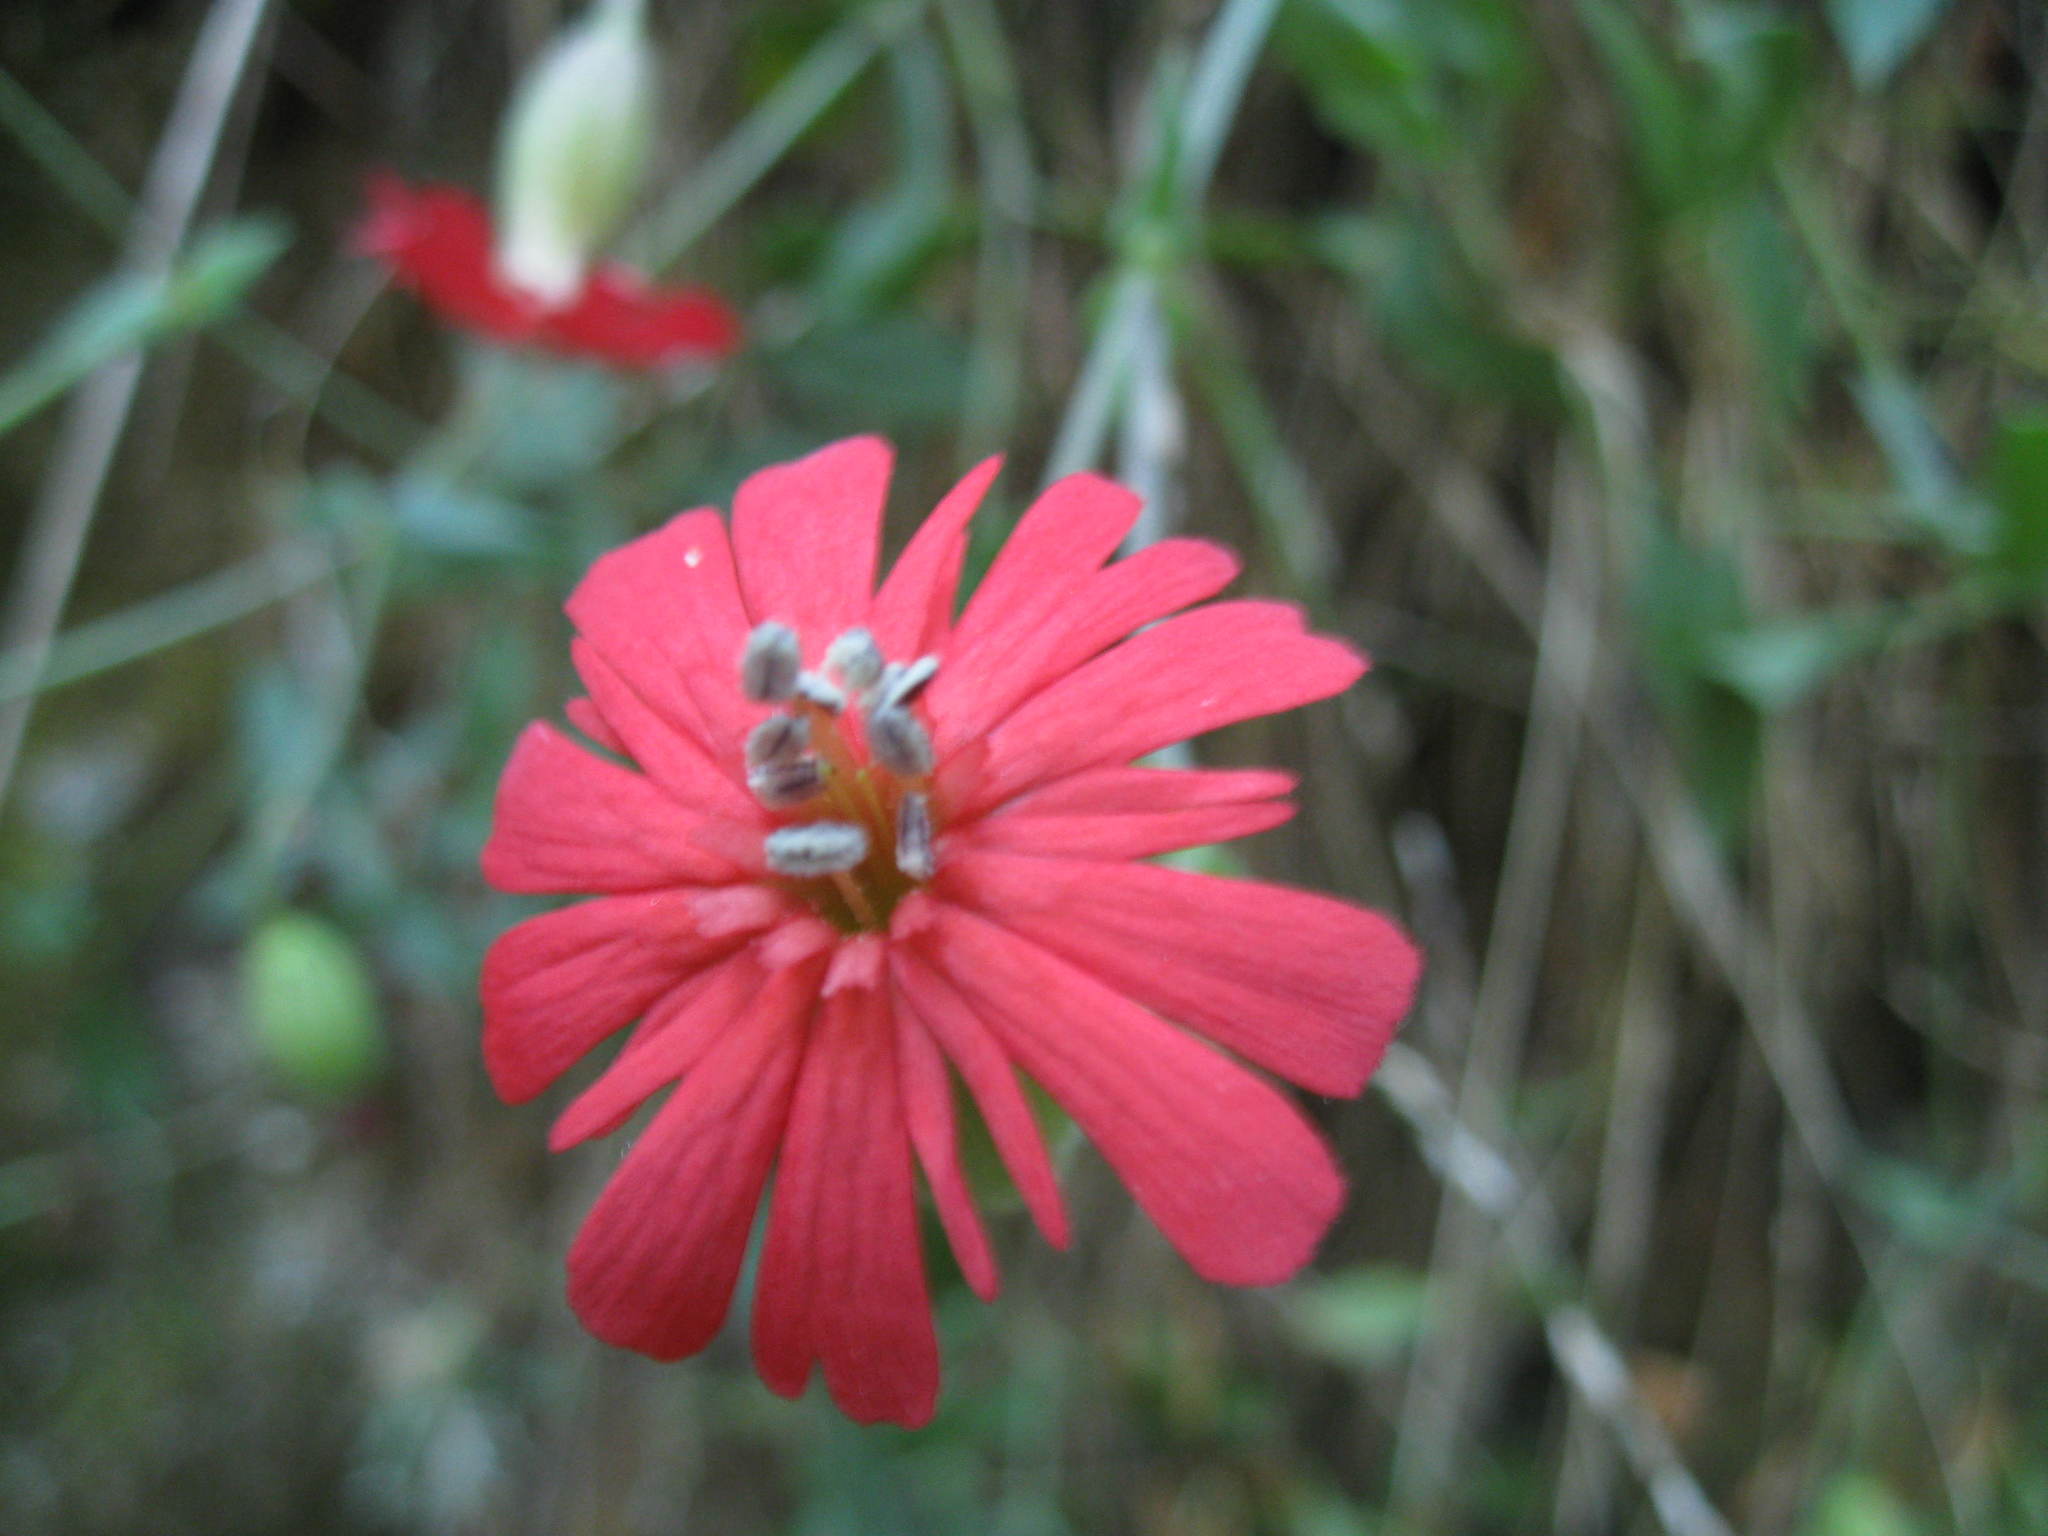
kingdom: Plantae
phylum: Tracheophyta
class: Magnoliopsida
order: Caryophyllales
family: Caryophyllaceae
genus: Silene
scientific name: Silene laciniata
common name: Indian-pink
